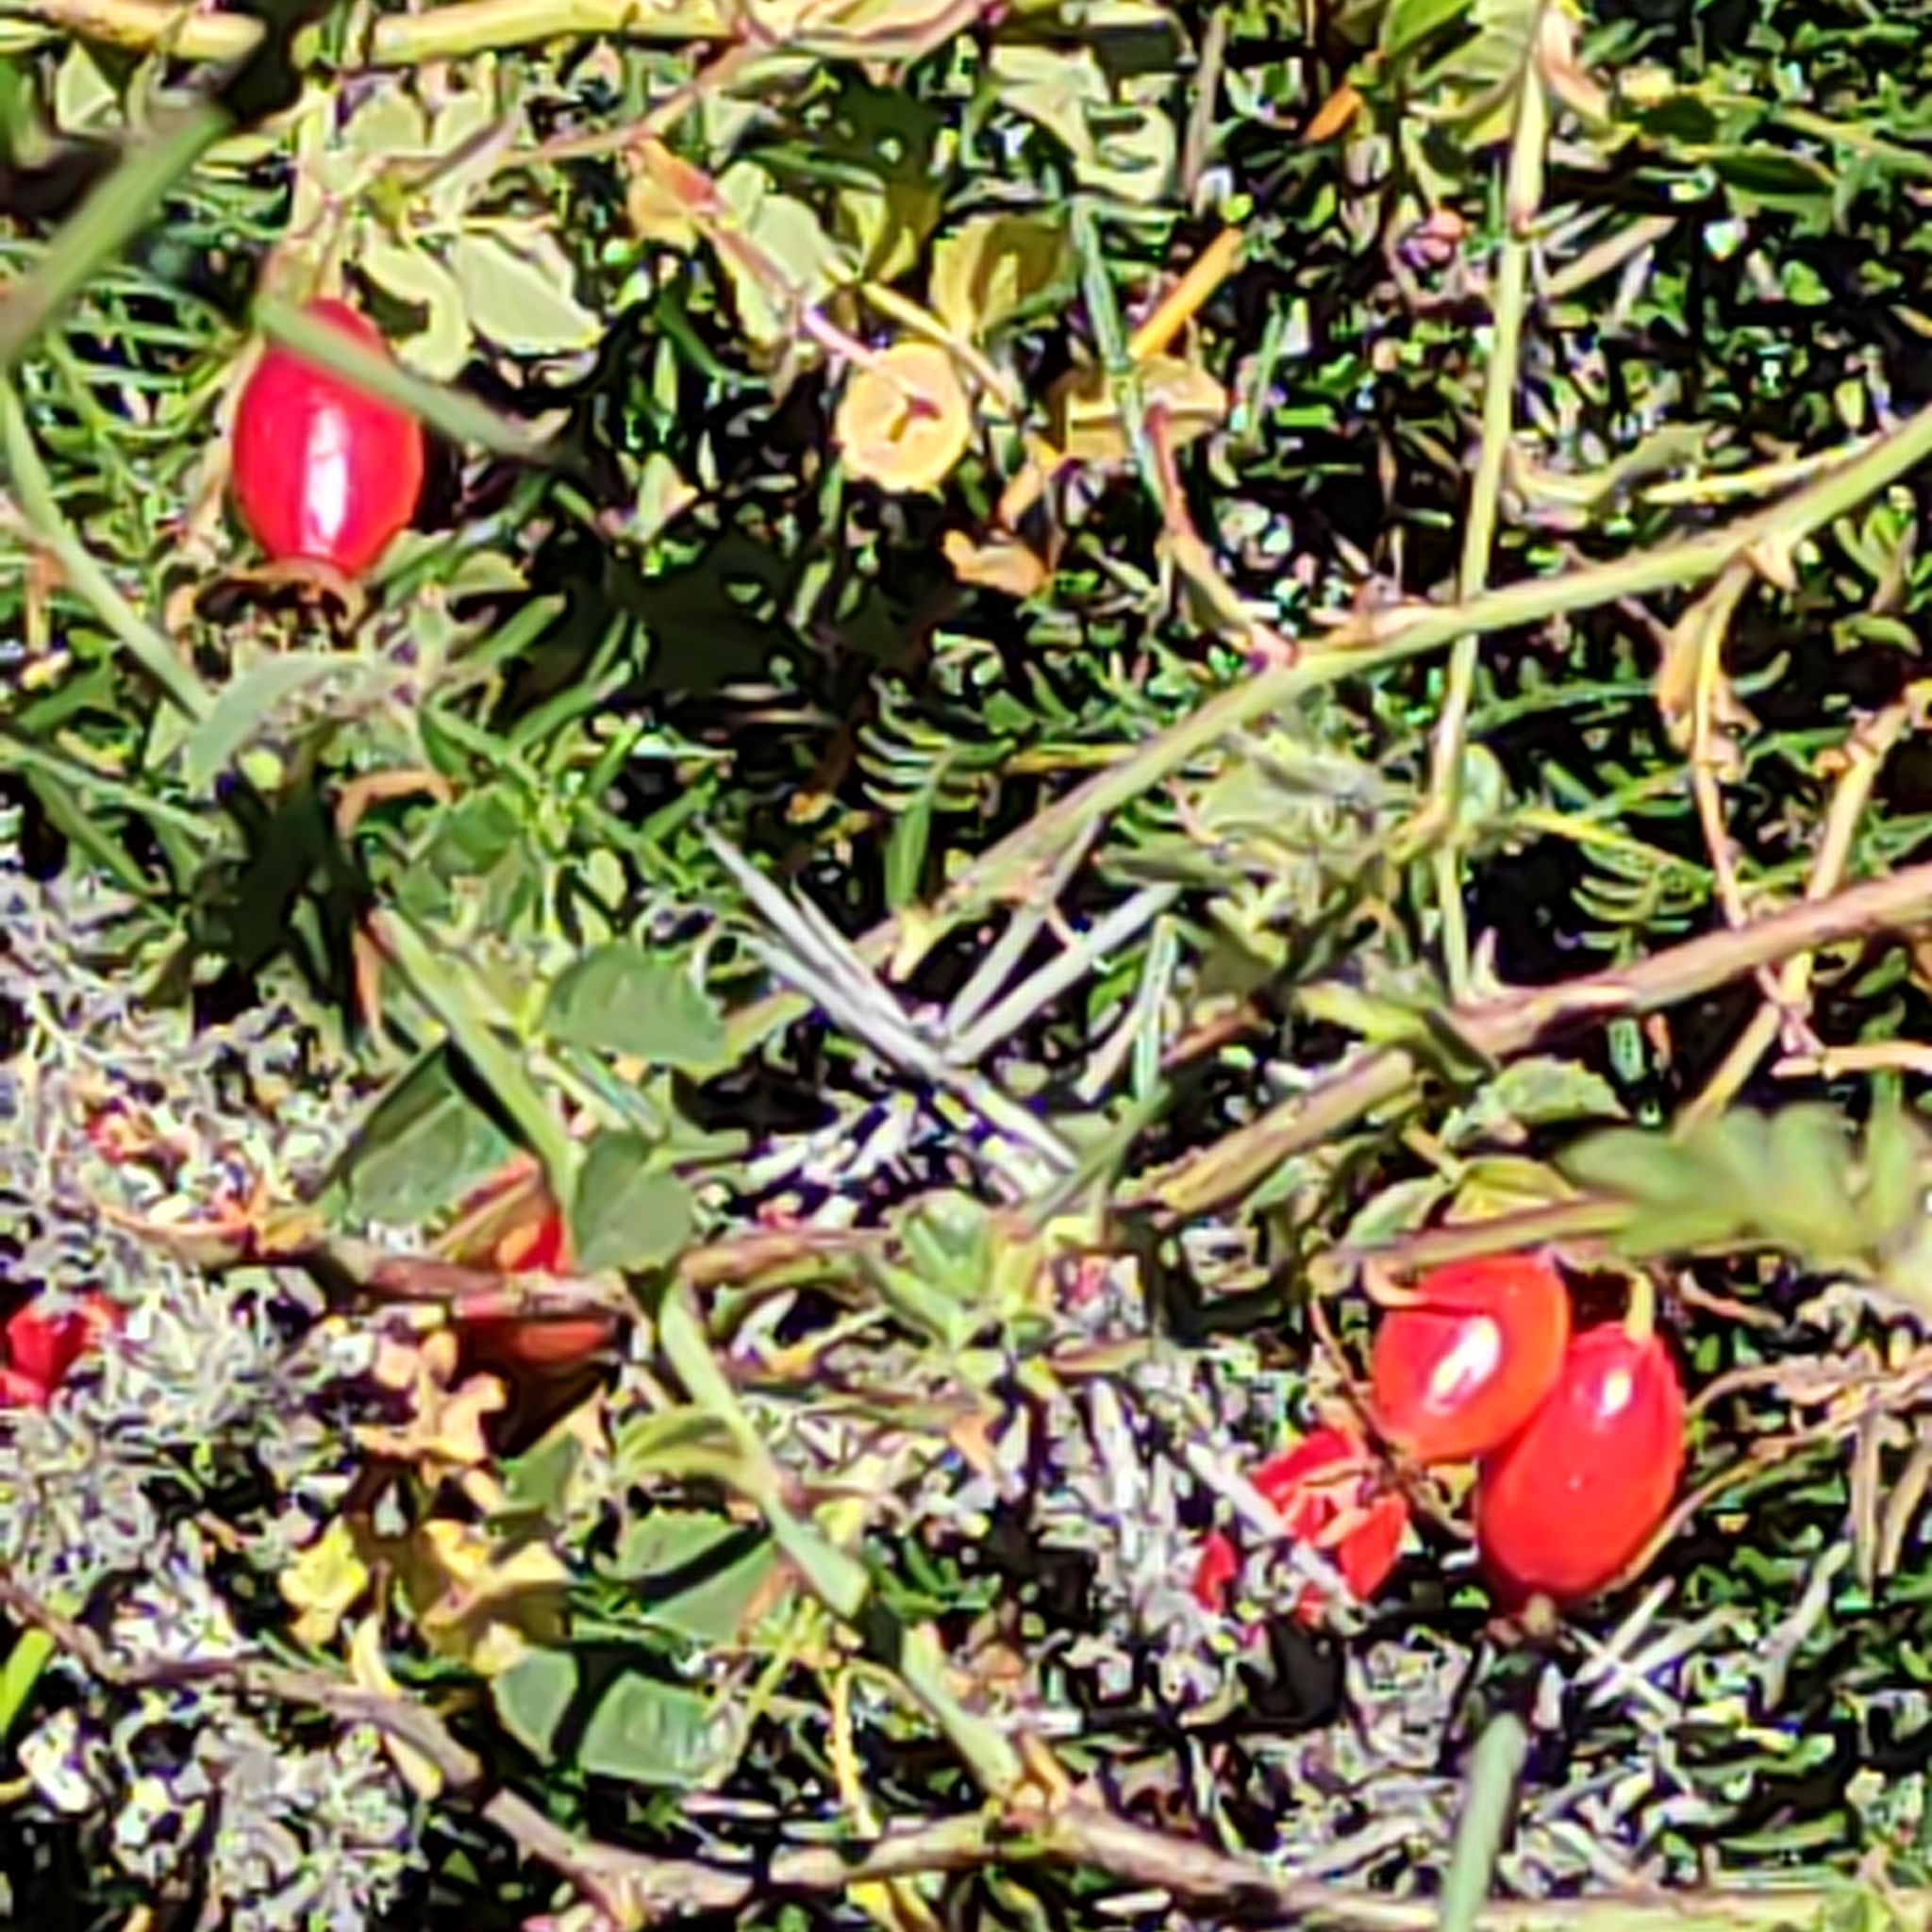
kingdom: Plantae
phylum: Tracheophyta
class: Magnoliopsida
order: Rosales
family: Rosaceae
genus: Rosa
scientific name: Rosa rubiginosa
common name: Sweet-briar
